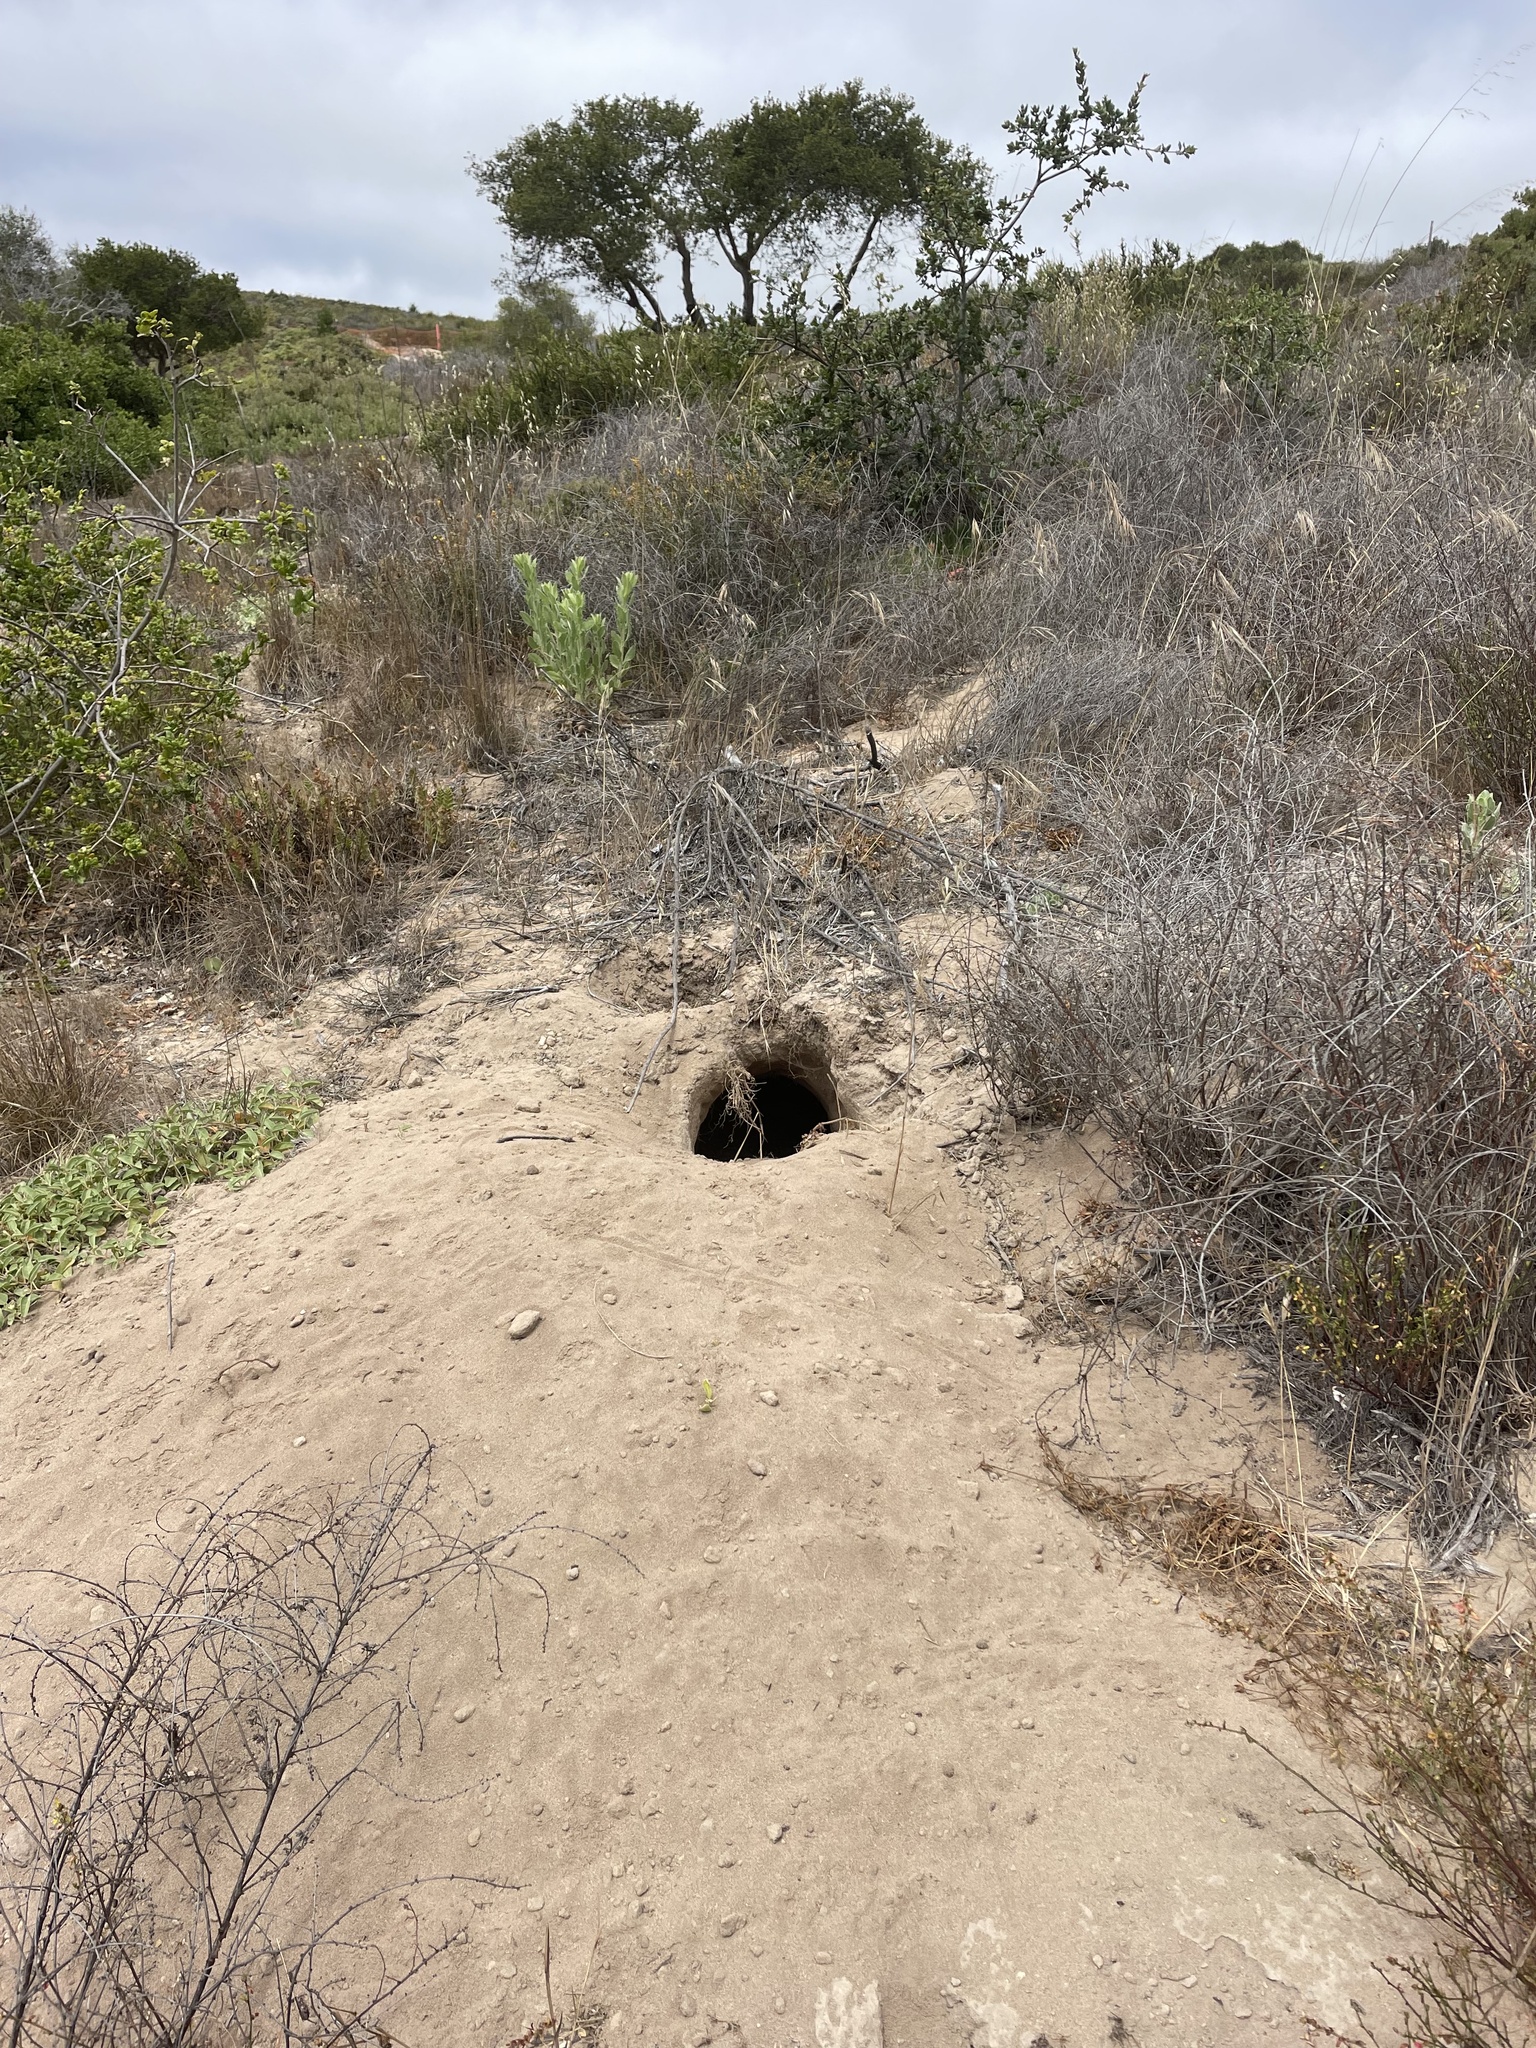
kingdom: Animalia
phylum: Chordata
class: Mammalia
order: Carnivora
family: Mustelidae
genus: Taxidea
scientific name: Taxidea taxus
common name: American badger
